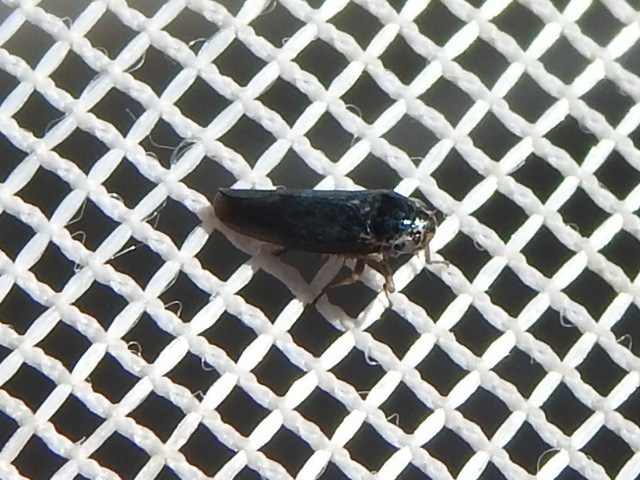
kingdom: Animalia
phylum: Arthropoda
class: Insecta
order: Hemiptera
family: Cicadellidae
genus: Ciminius
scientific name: Ciminius hartii
